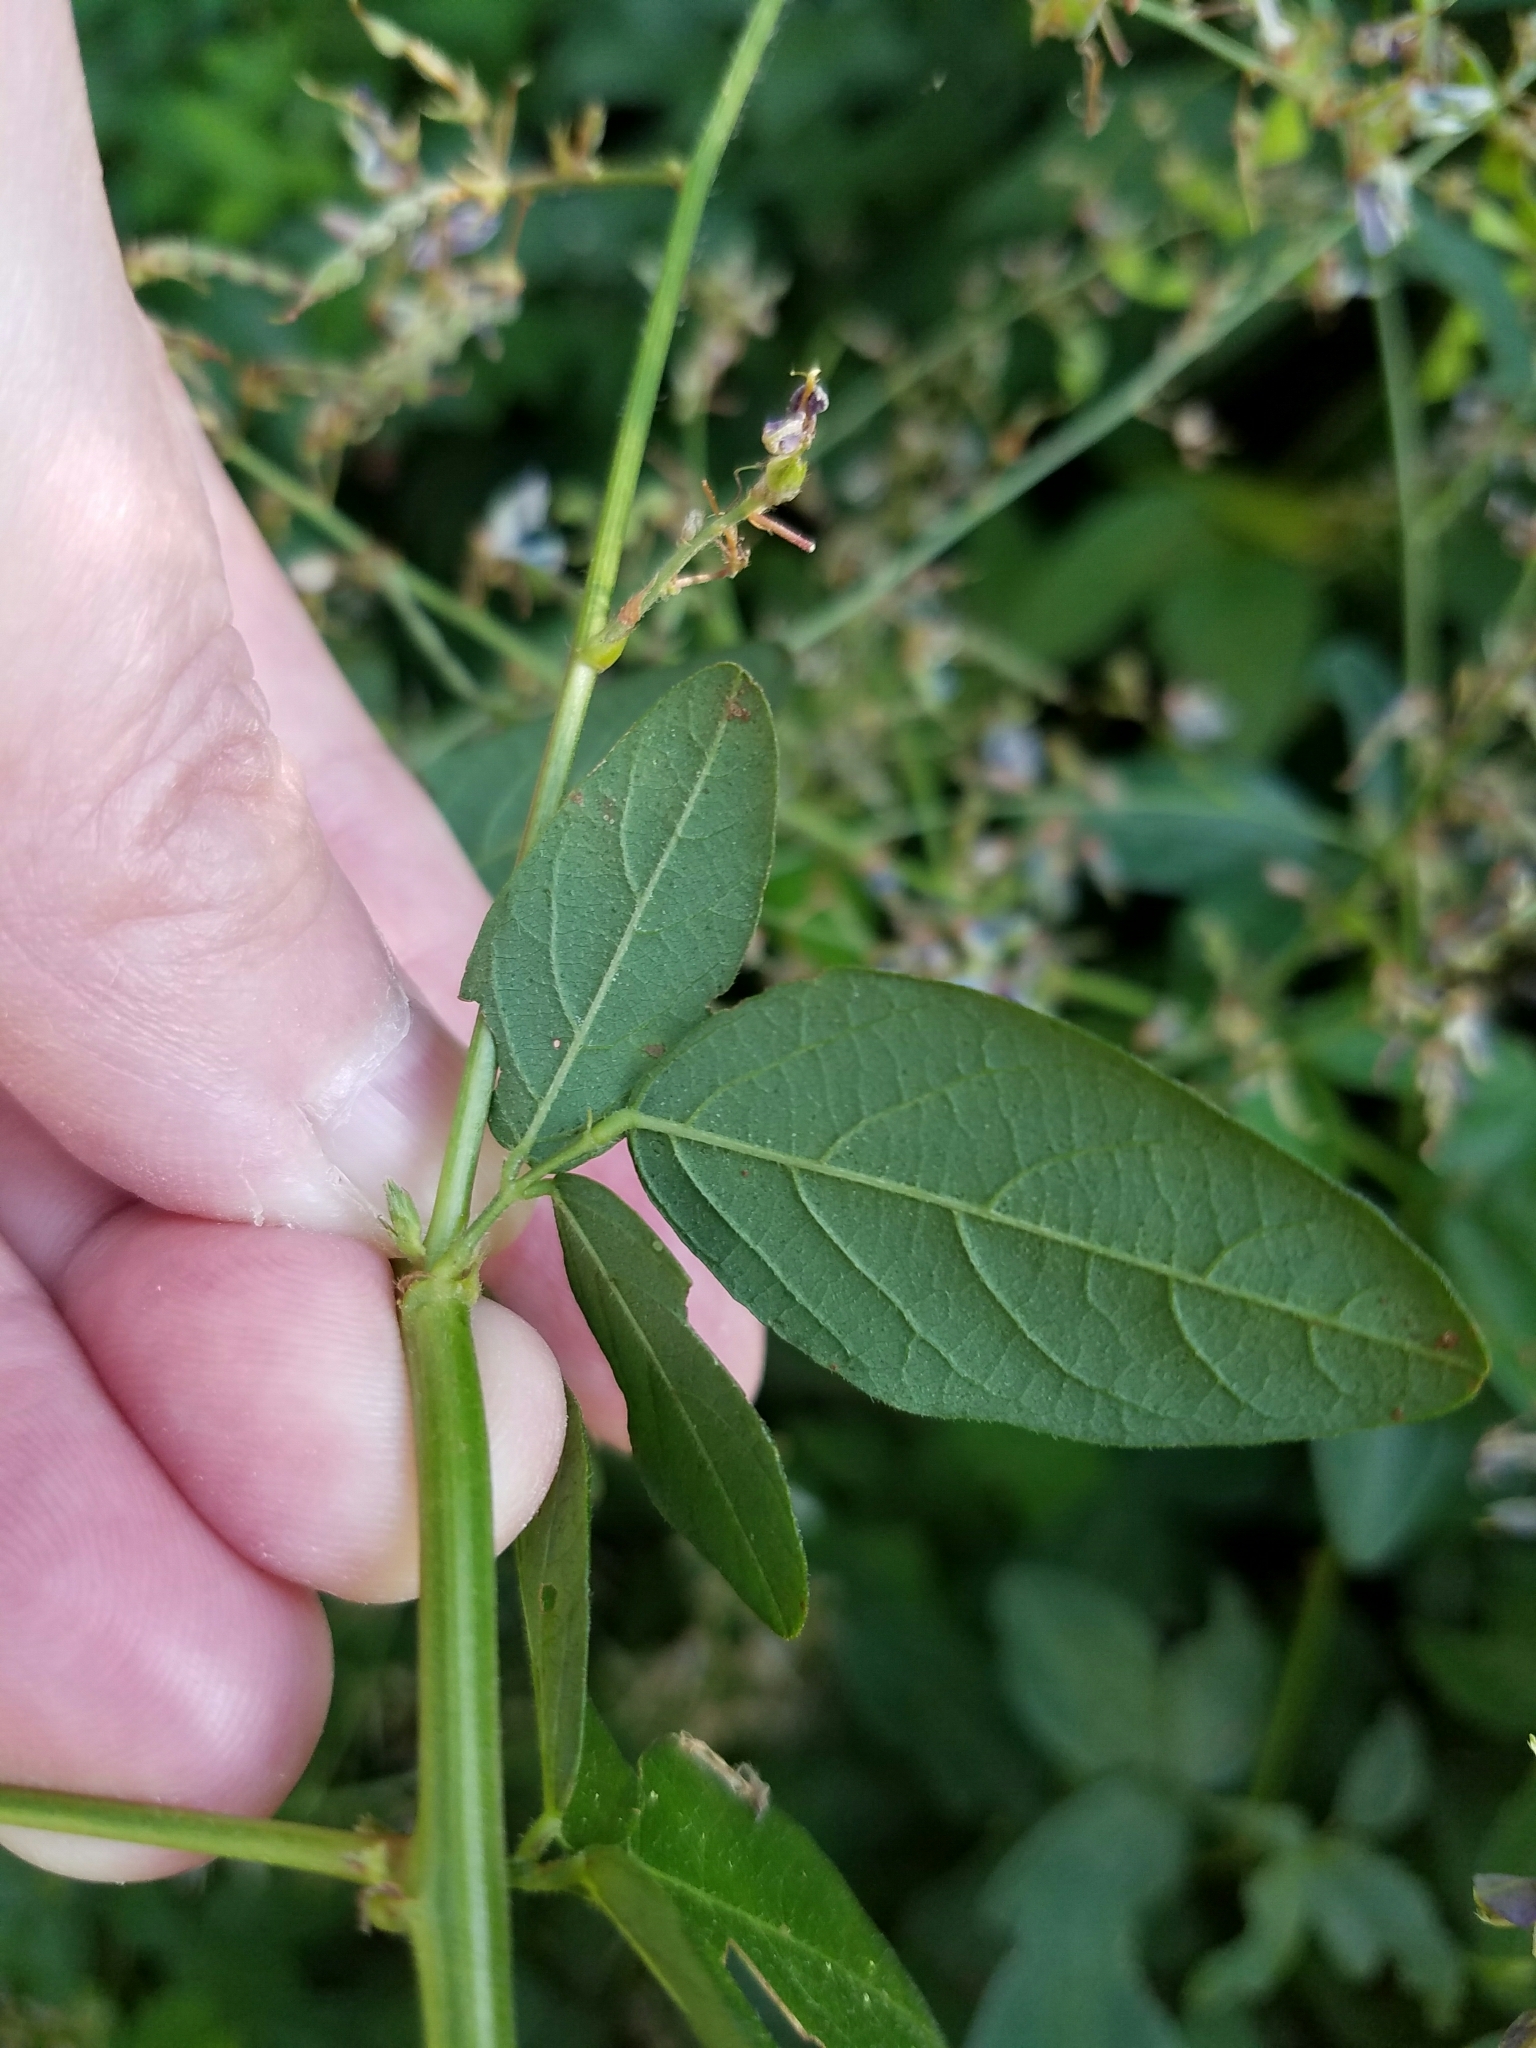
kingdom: Plantae
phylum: Tracheophyta
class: Magnoliopsida
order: Fabales
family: Fabaceae
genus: Desmodium
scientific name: Desmodium glabellum
